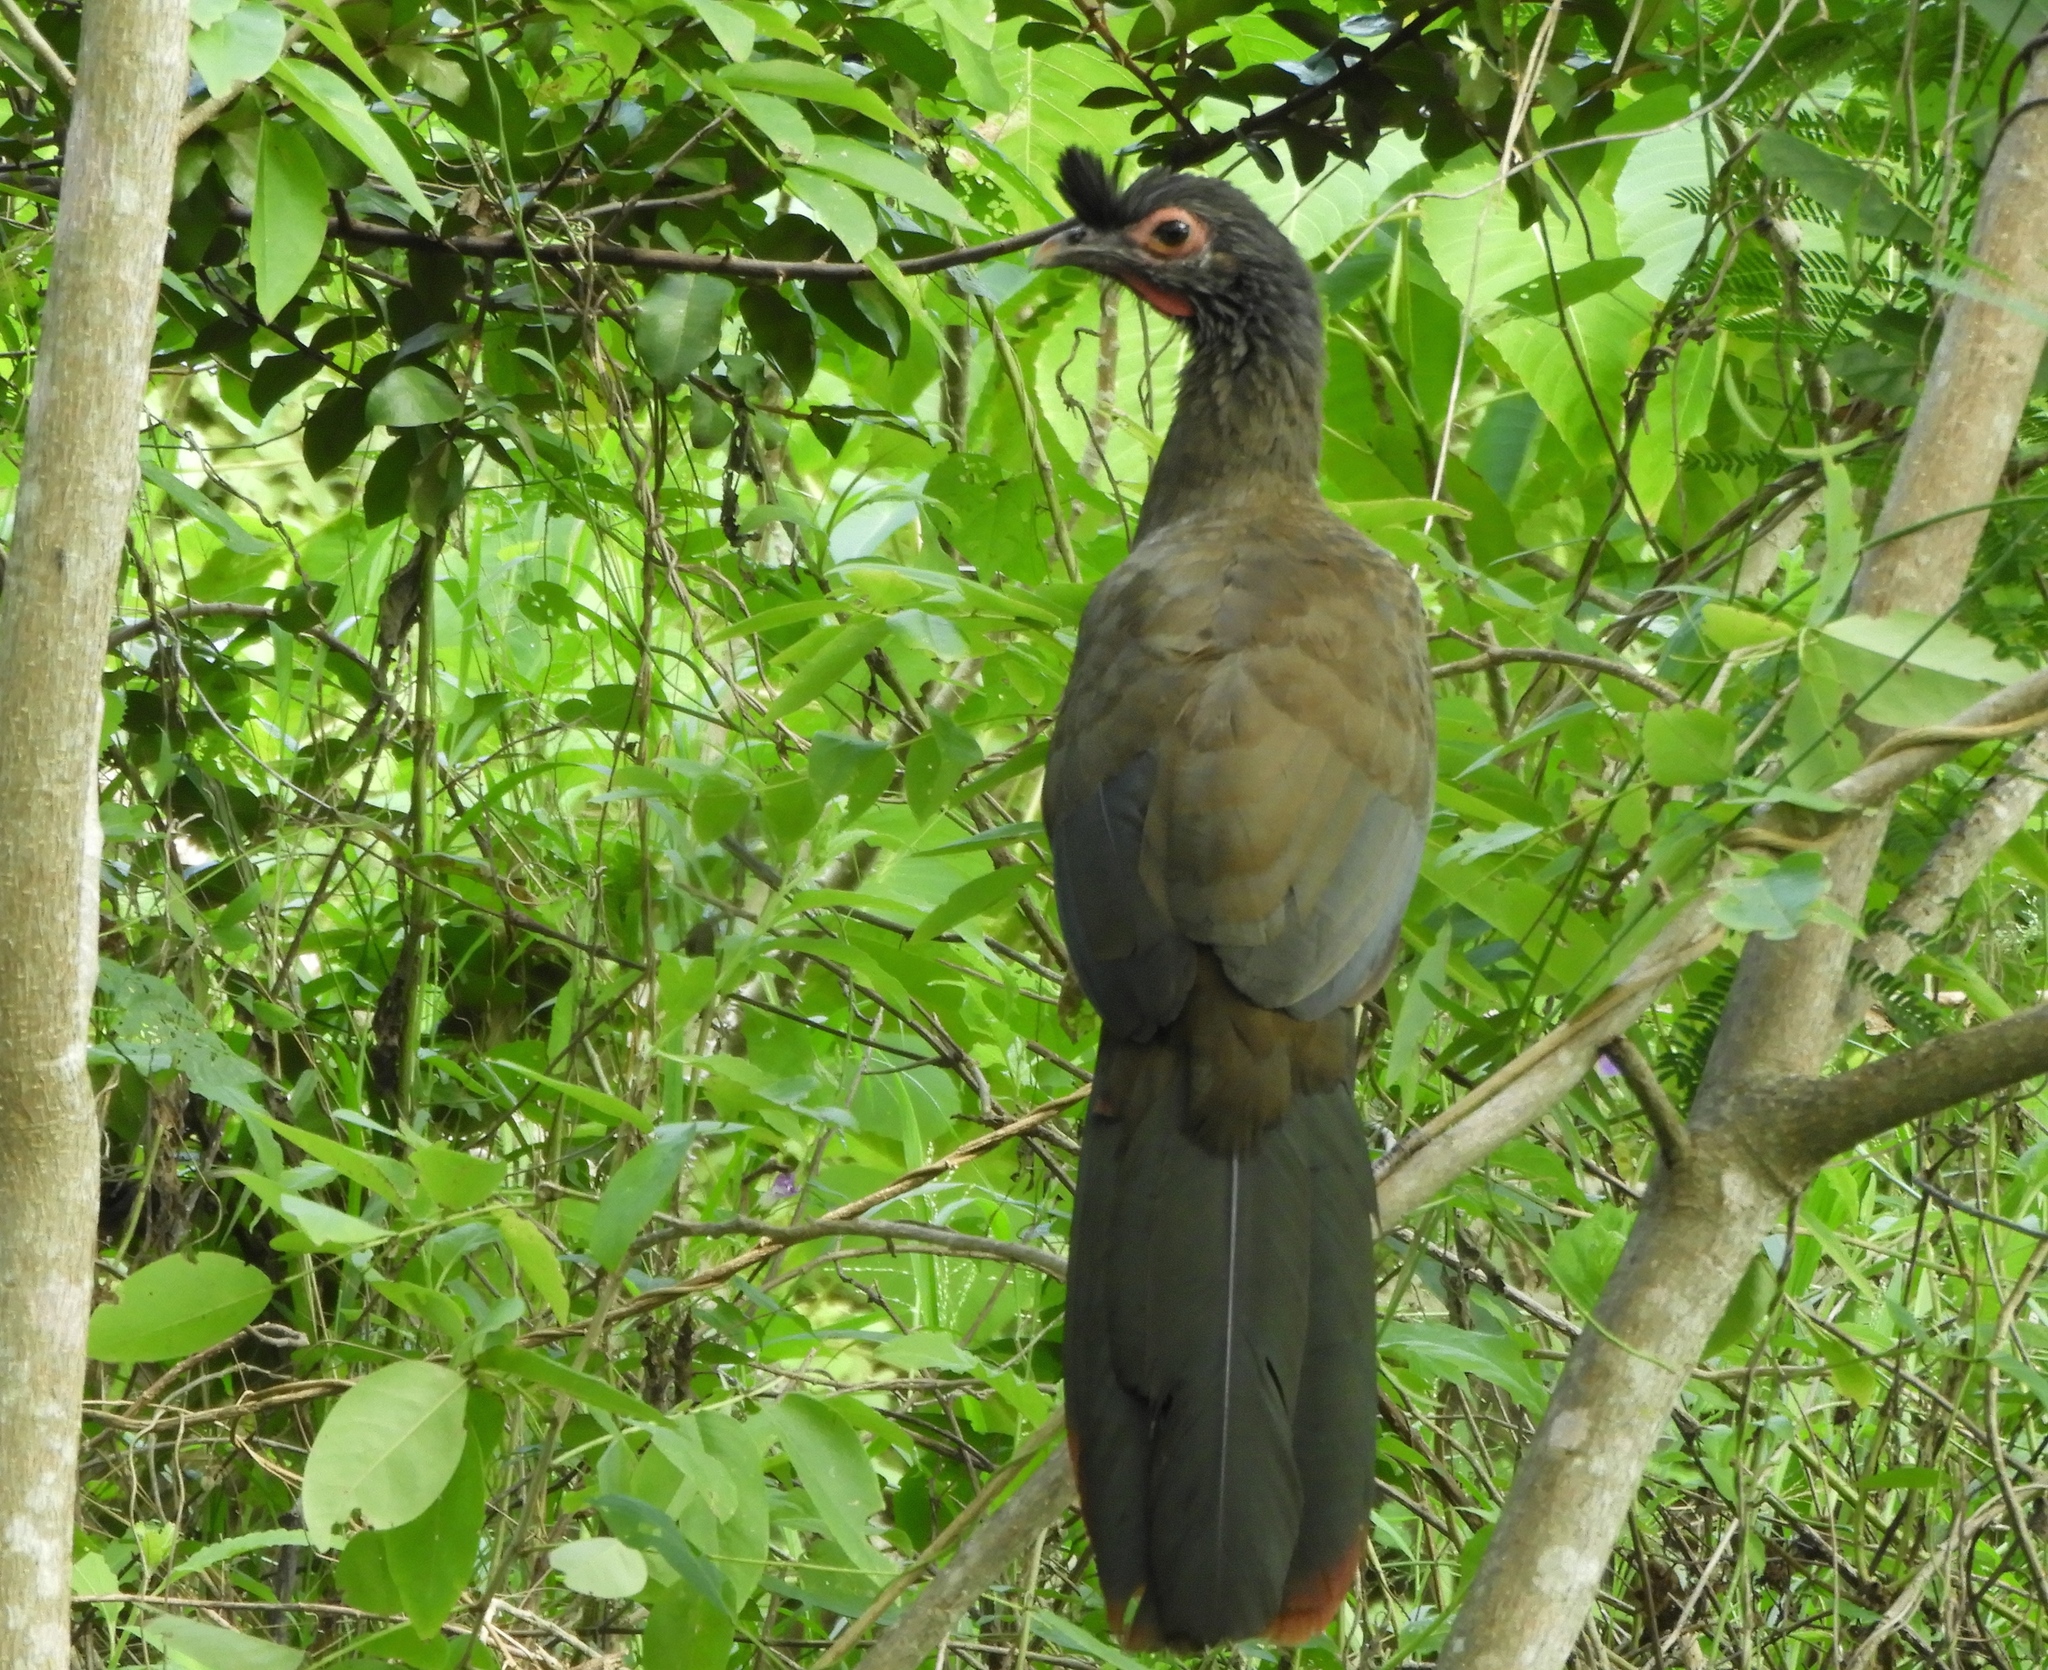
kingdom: Animalia
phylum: Chordata
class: Aves
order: Galliformes
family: Cracidae
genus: Ortalis
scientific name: Ortalis wagleri
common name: Rufous-bellied chachalaca
